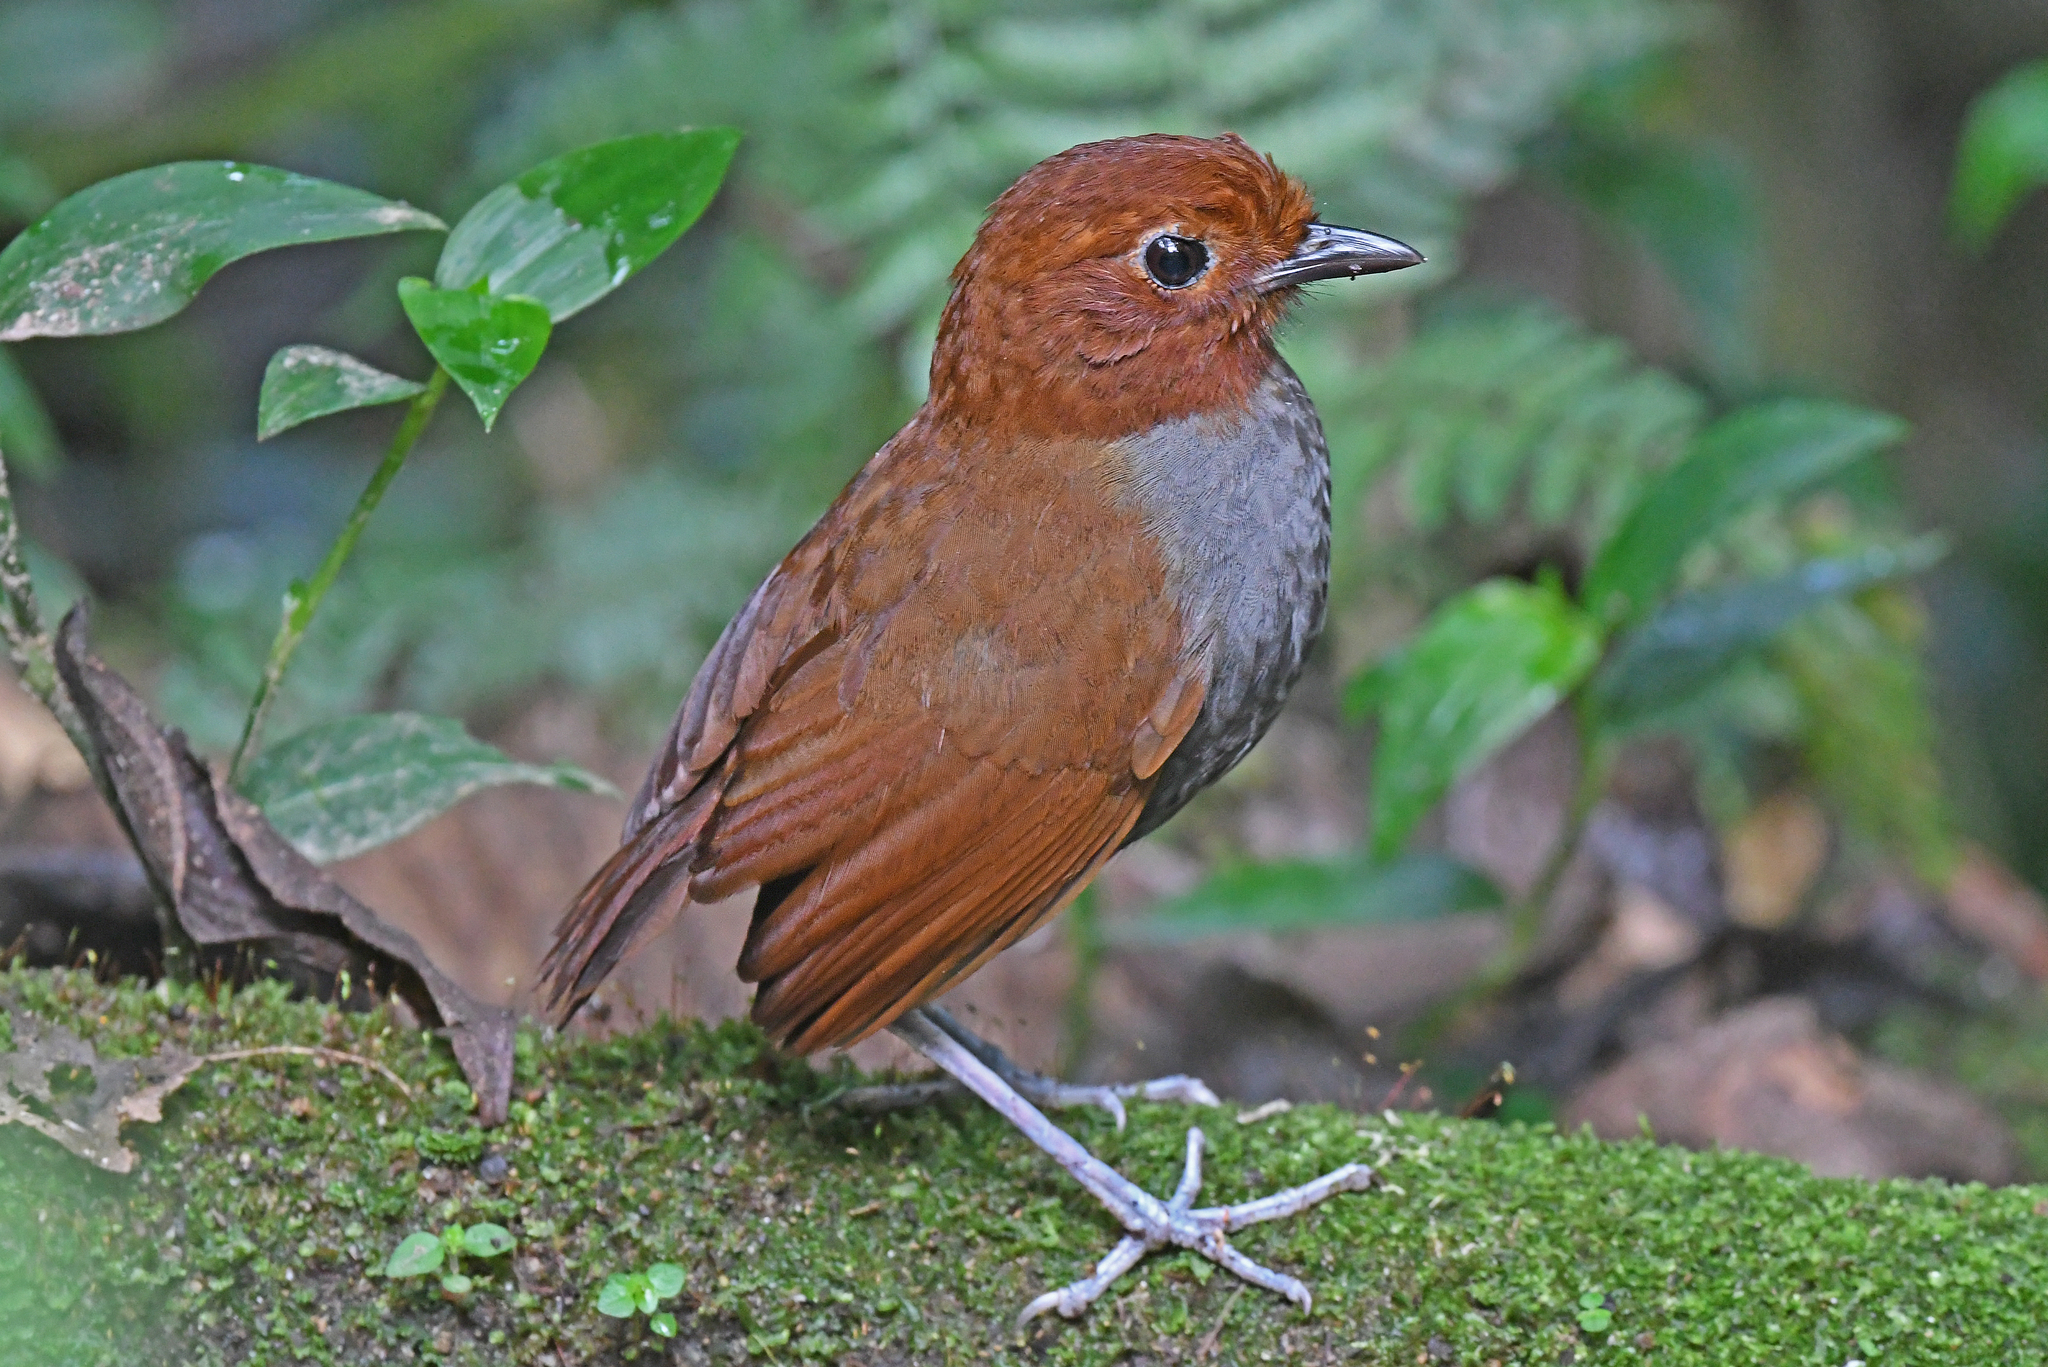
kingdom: Animalia
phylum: Chordata
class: Aves
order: Passeriformes
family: Grallariidae
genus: Grallaria
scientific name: Grallaria rufocinerea
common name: Bicolored antpitta
